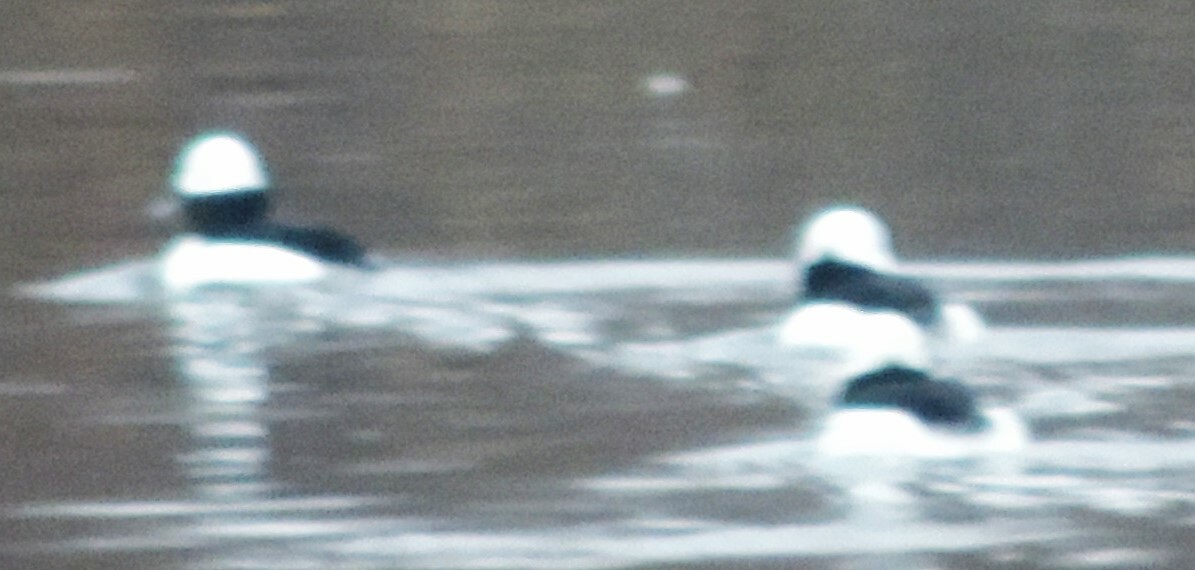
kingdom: Animalia
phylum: Chordata
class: Aves
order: Anseriformes
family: Anatidae
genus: Bucephala
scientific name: Bucephala albeola
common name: Bufflehead
